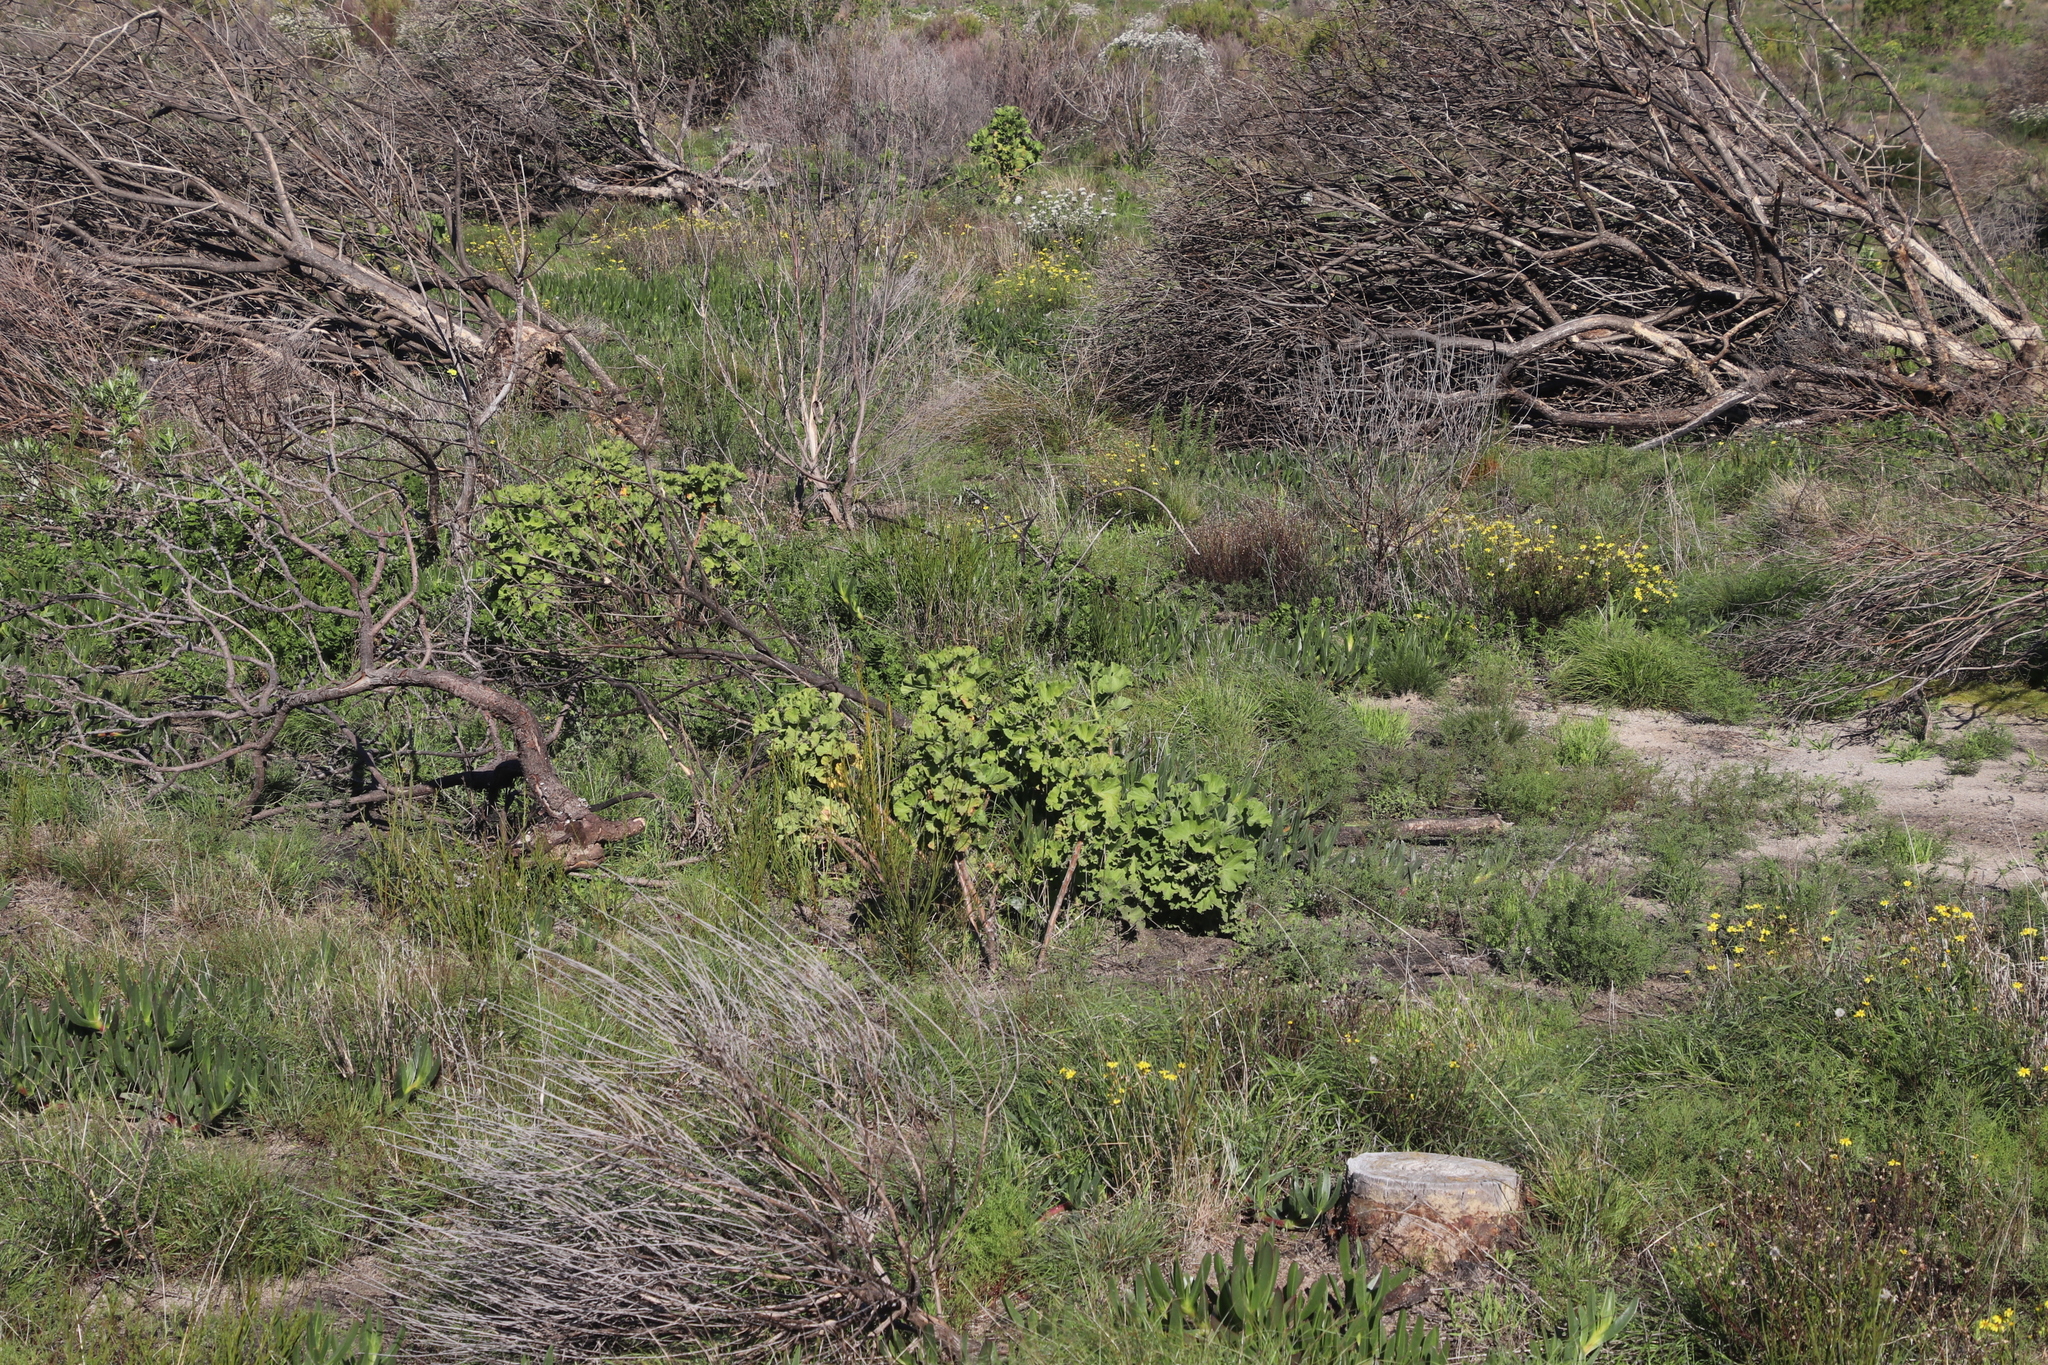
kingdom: Plantae
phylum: Tracheophyta
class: Magnoliopsida
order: Geraniales
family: Geraniaceae
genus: Pelargonium
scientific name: Pelargonium cucullatum
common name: Tree pelargonium
